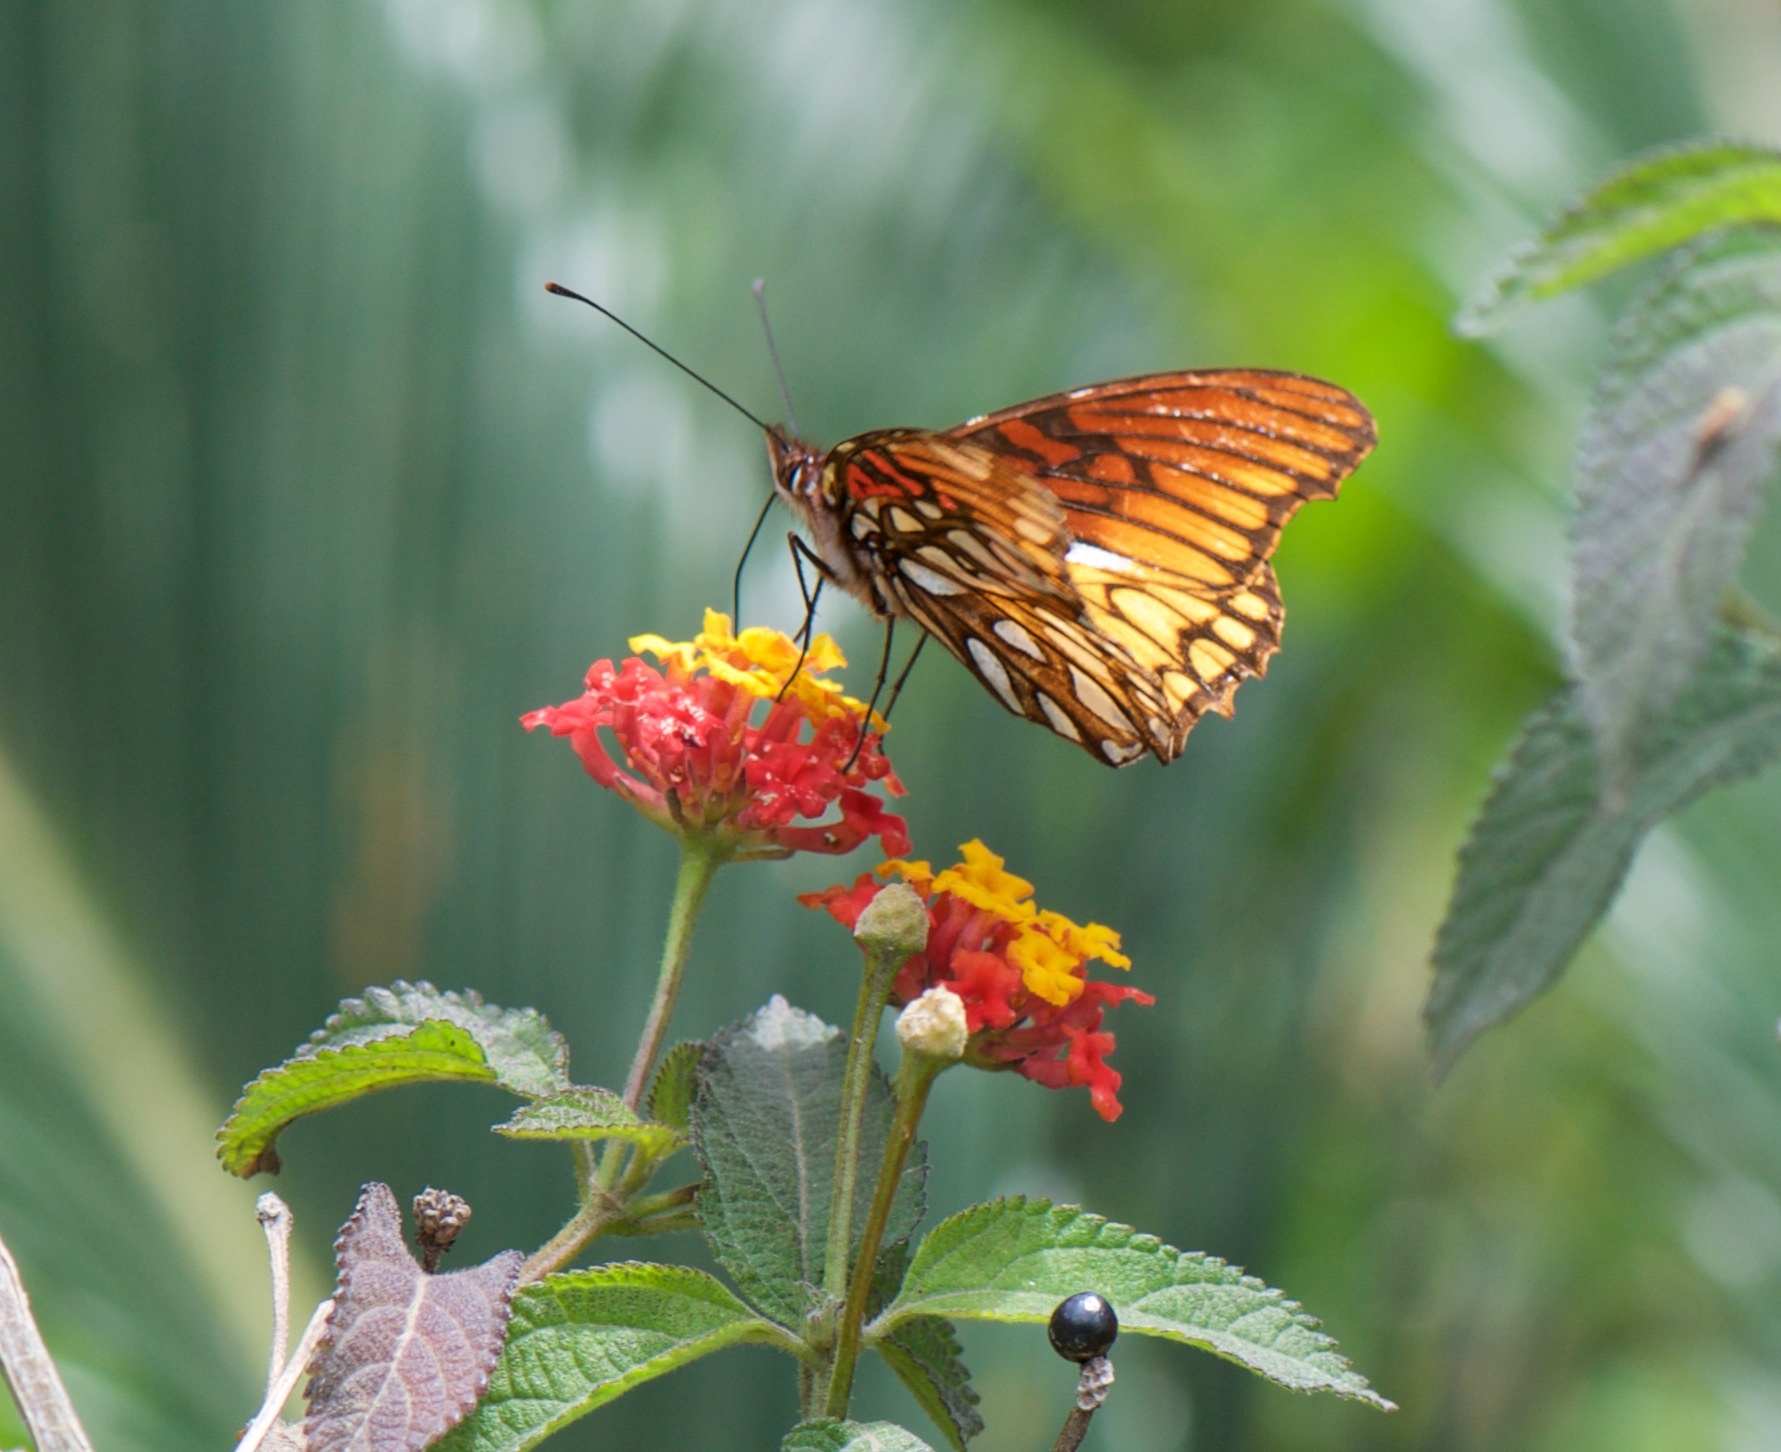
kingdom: Animalia
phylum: Arthropoda
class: Insecta
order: Lepidoptera
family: Nymphalidae
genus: Dione
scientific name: Dione moneta
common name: Mexican silverspot
